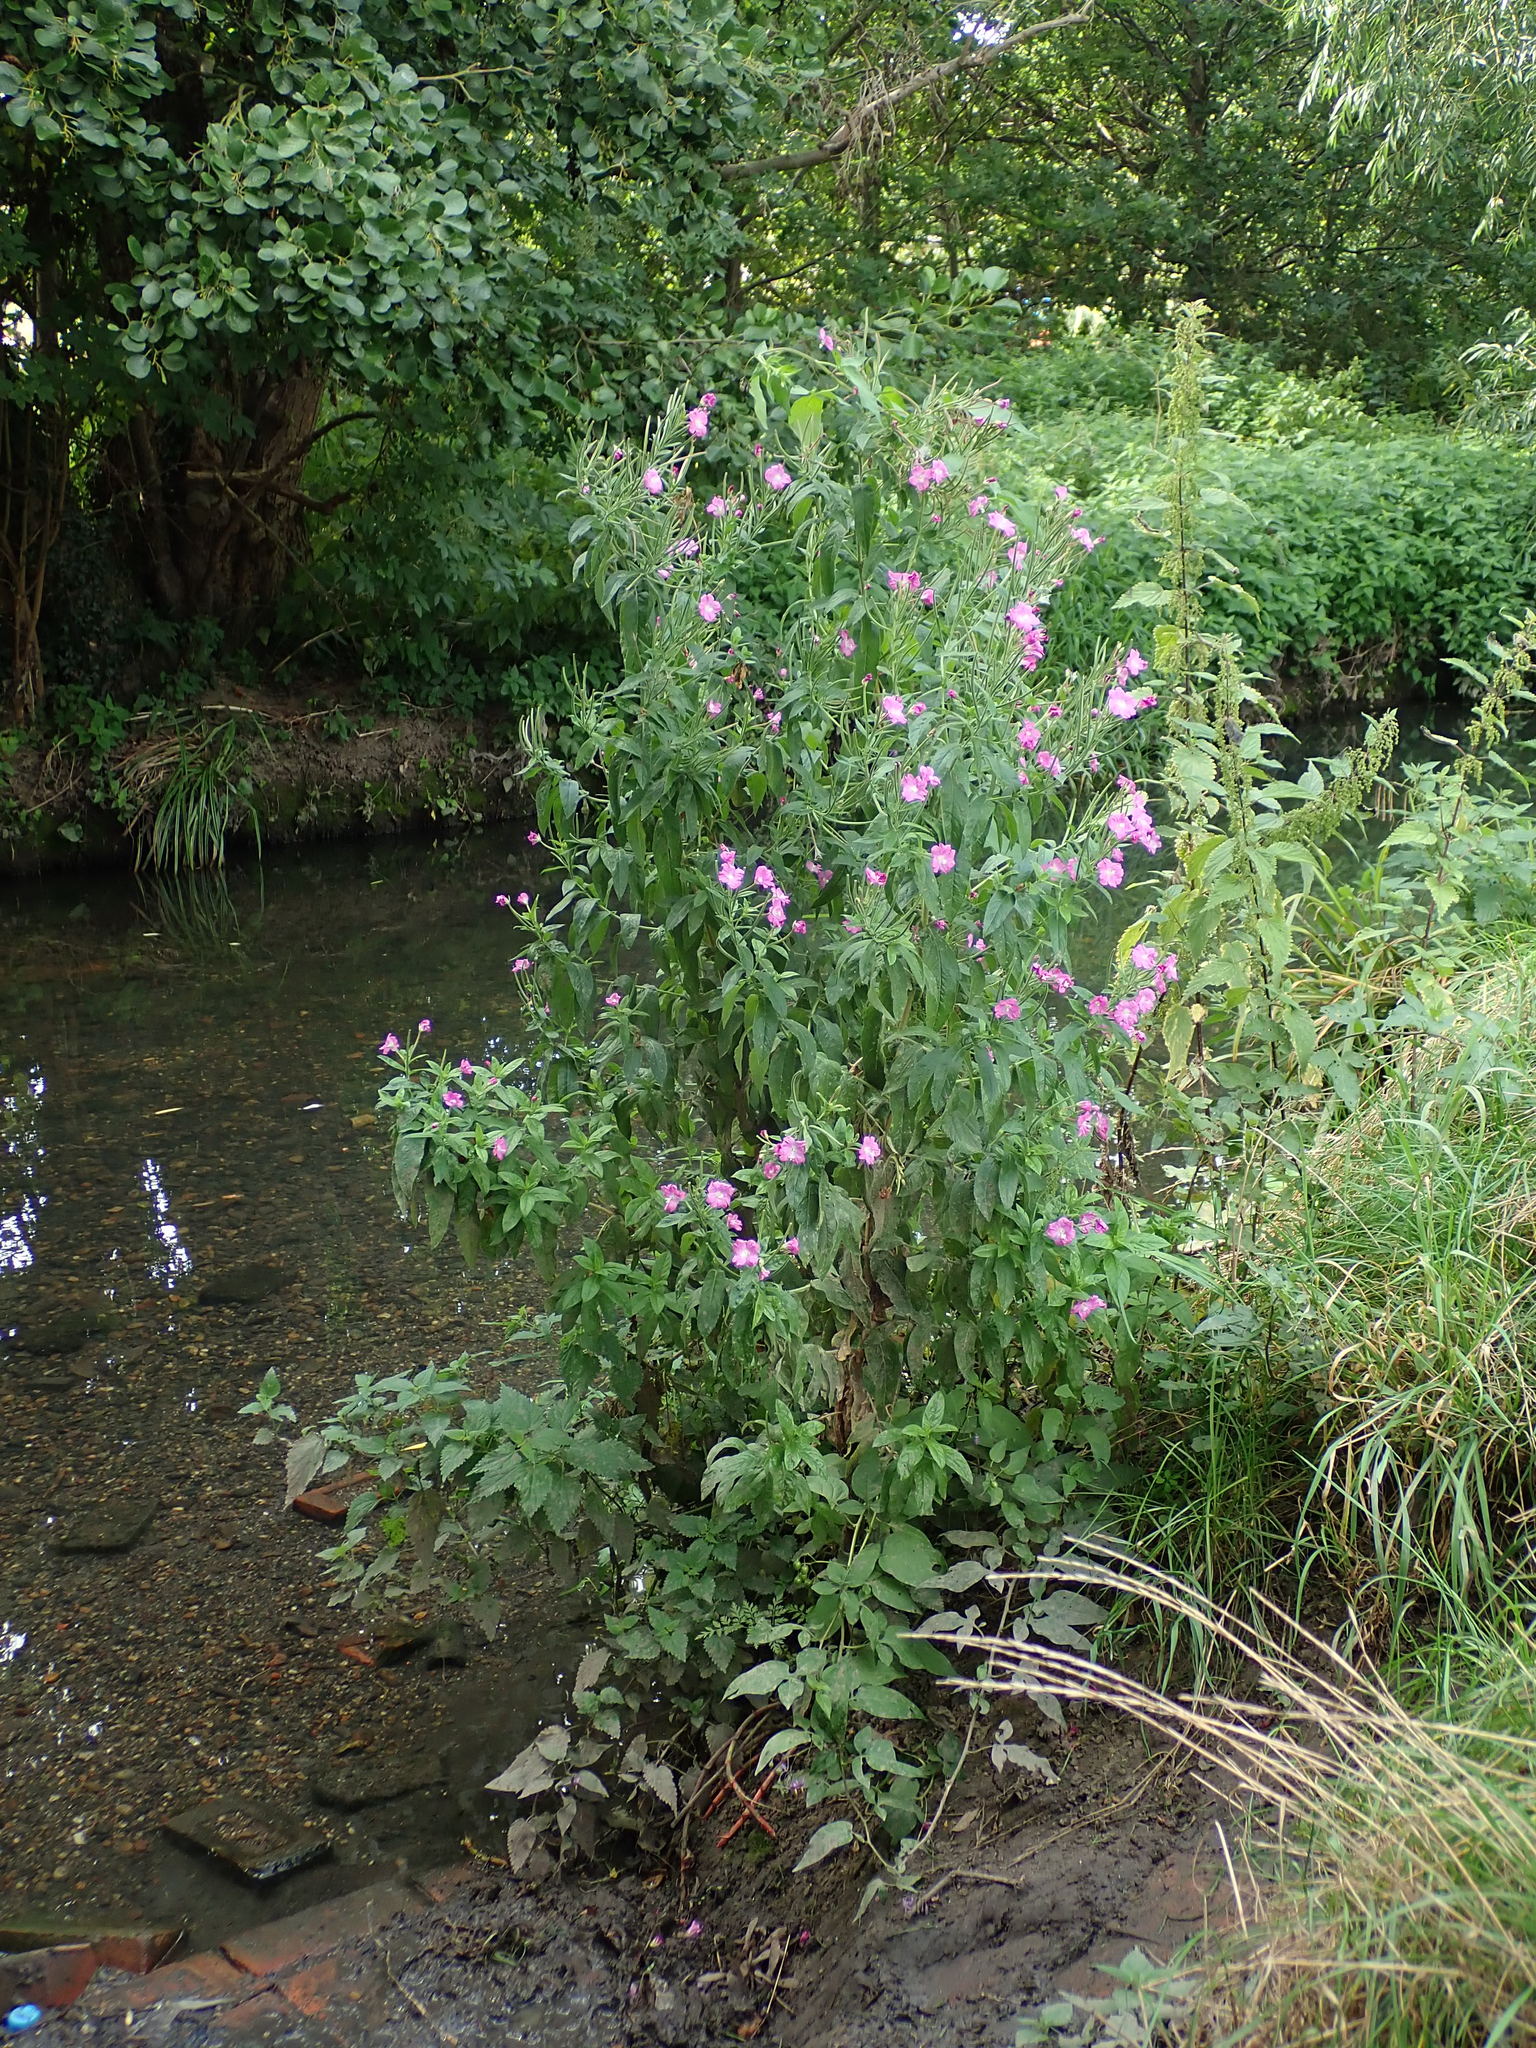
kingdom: Plantae
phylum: Tracheophyta
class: Magnoliopsida
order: Myrtales
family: Onagraceae
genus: Epilobium
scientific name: Epilobium hirsutum
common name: Great willowherb
